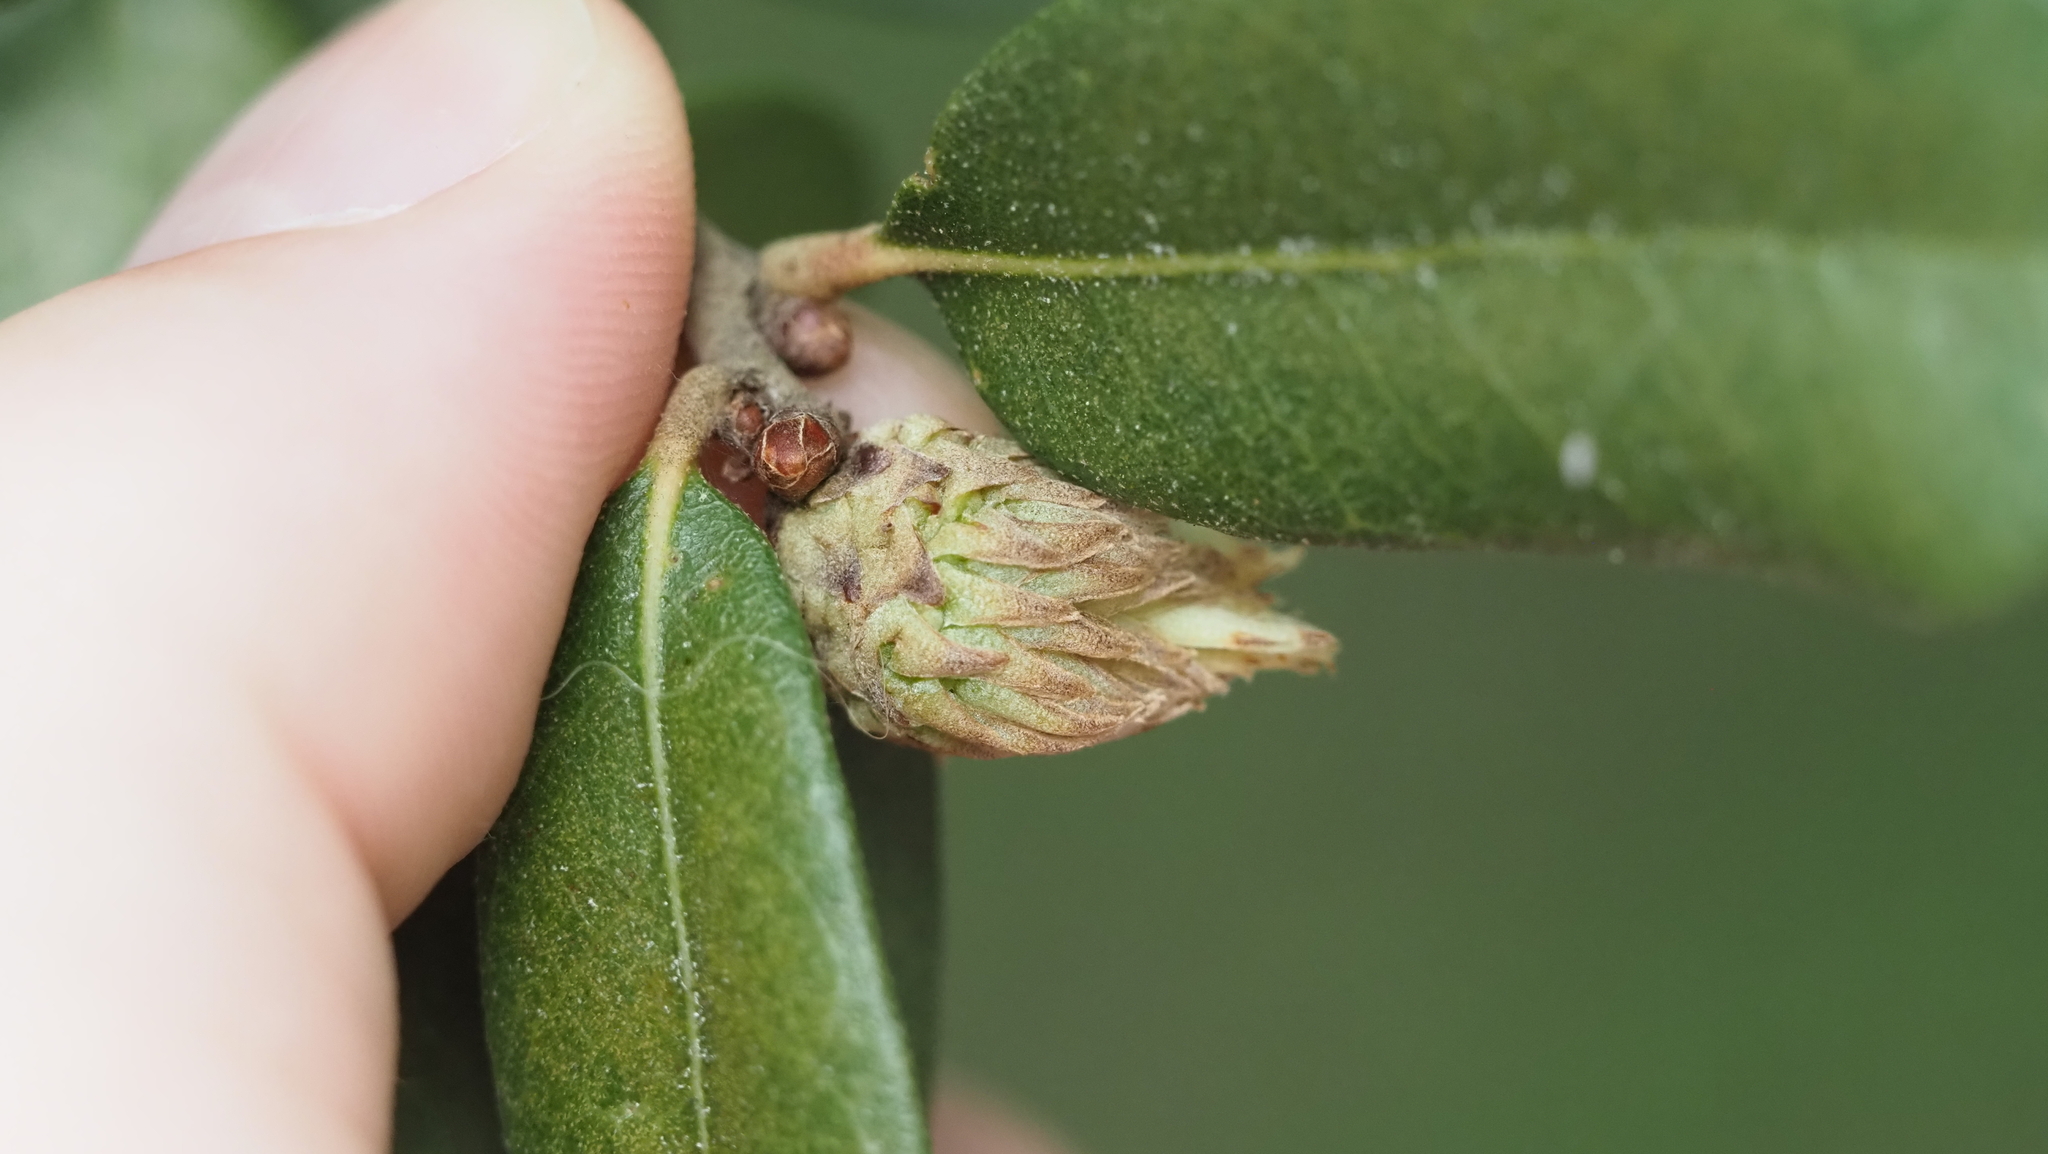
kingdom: Animalia
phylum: Arthropoda
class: Insecta
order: Hymenoptera
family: Cynipidae
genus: Andricus
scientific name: Andricus quercusfoliatus
